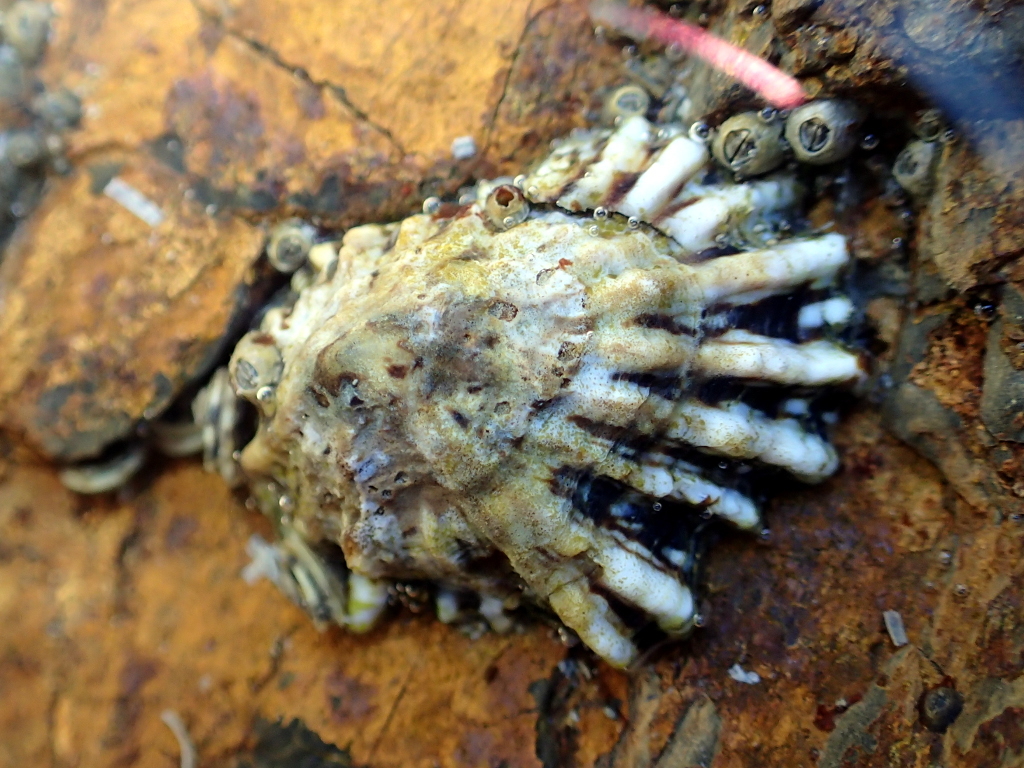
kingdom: Animalia
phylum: Mollusca
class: Gastropoda
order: Siphonariida
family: Siphonariidae
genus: Siphonaria
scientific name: Siphonaria australis
